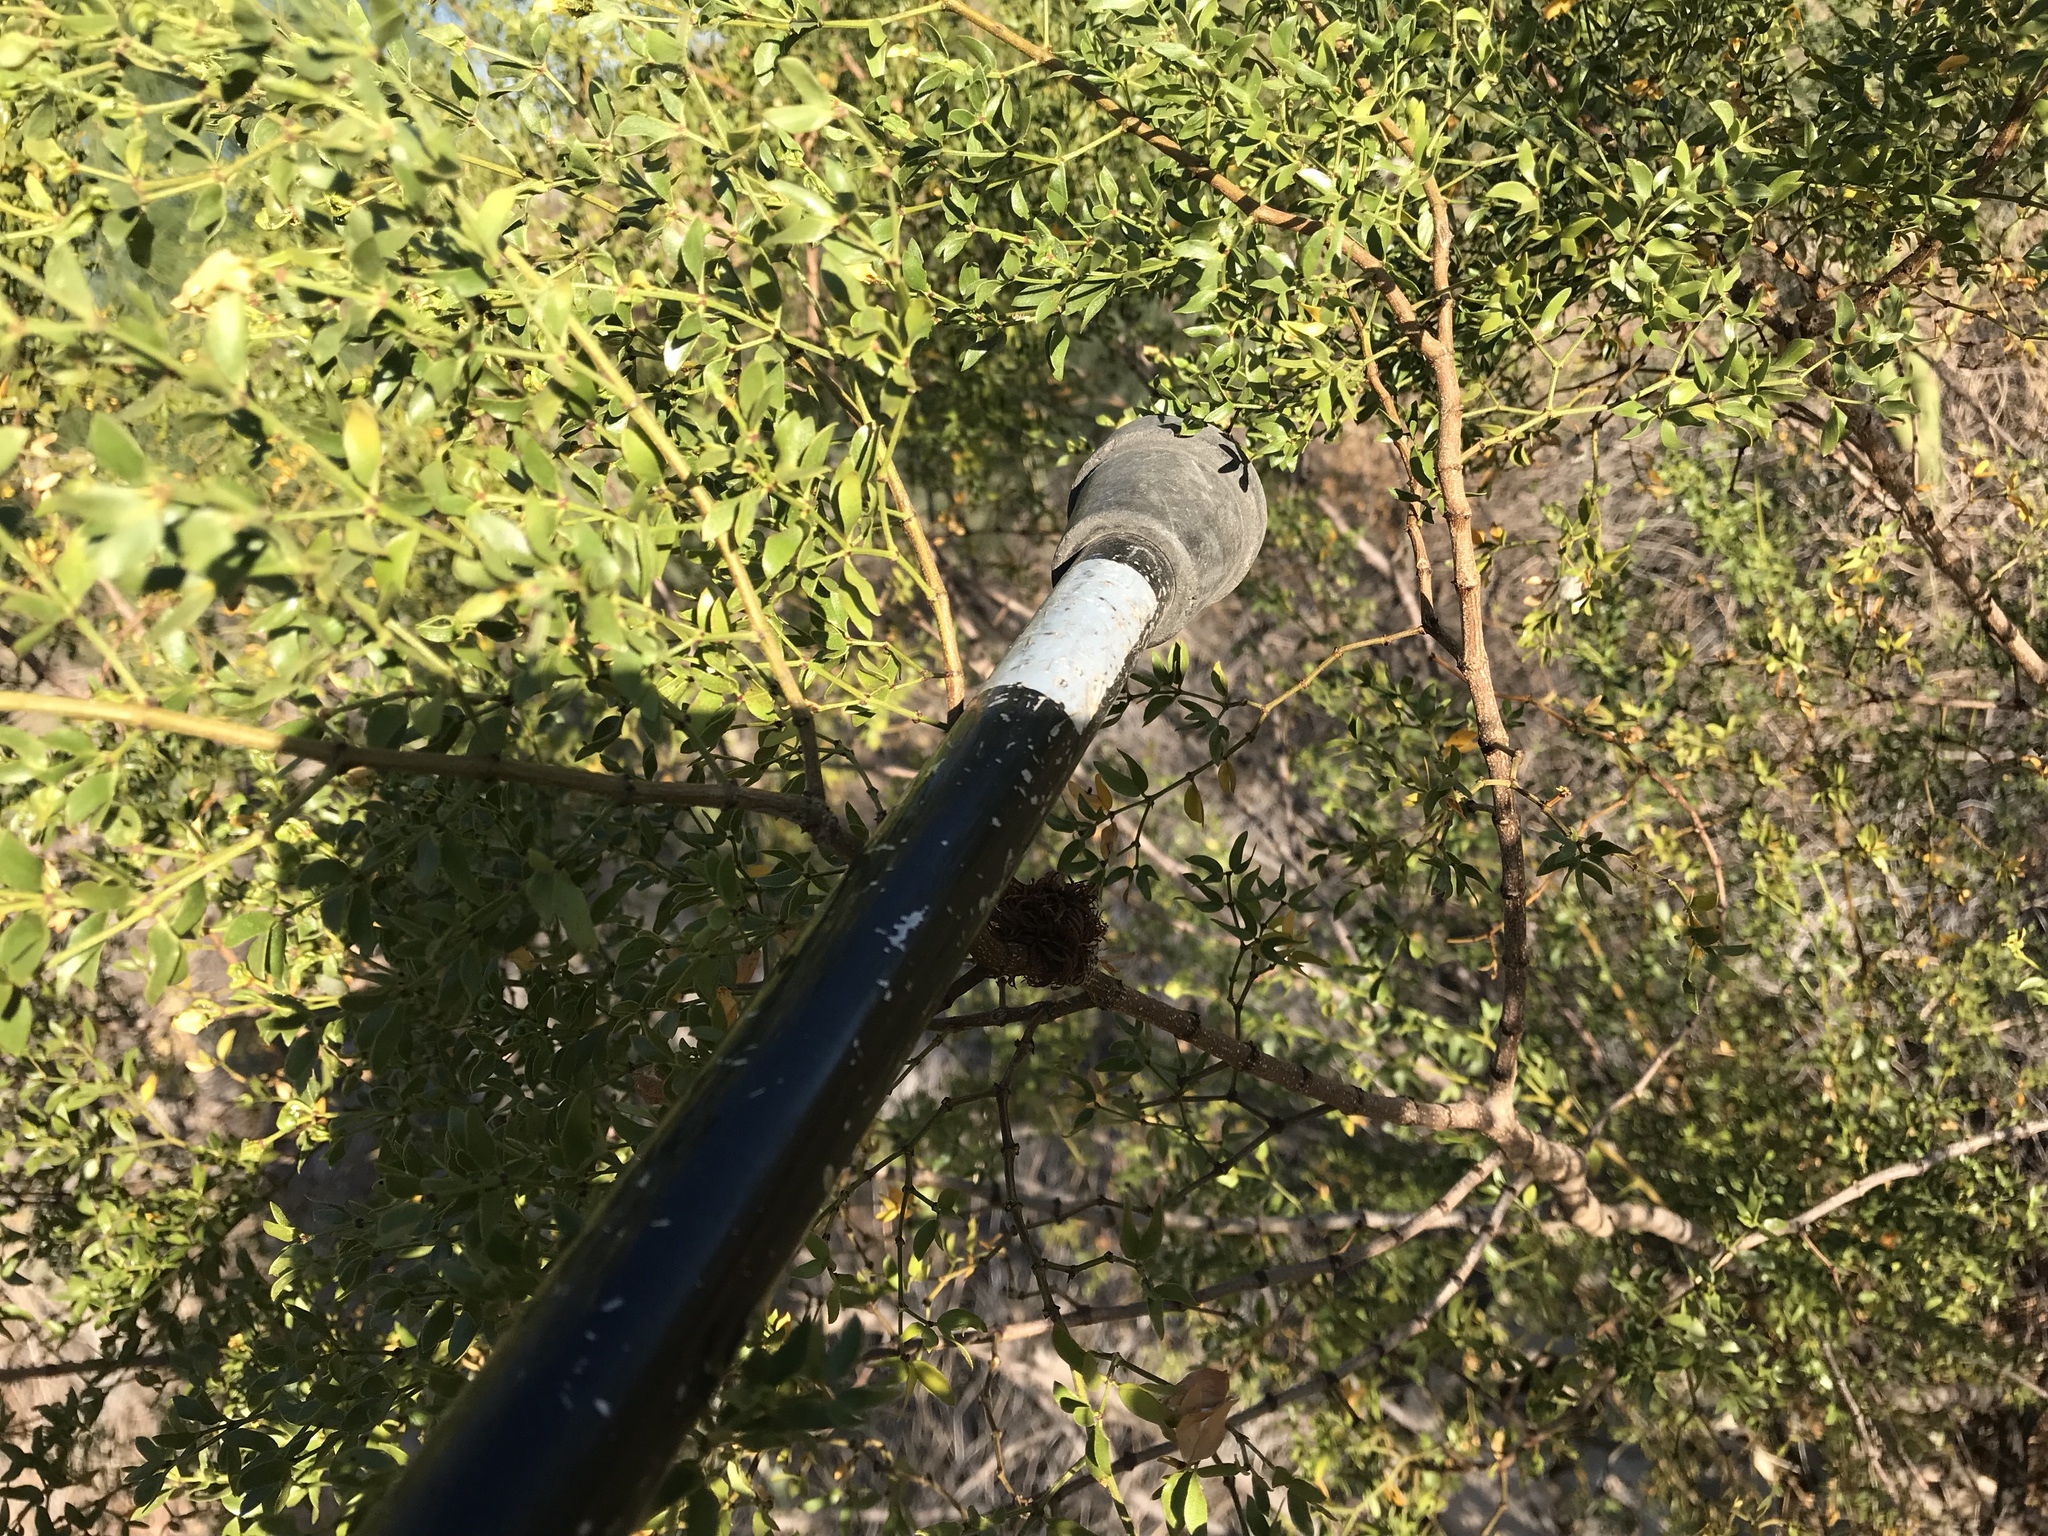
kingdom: Plantae
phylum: Tracheophyta
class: Magnoliopsida
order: Zygophyllales
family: Zygophyllaceae
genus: Larrea
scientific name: Larrea tridentata
